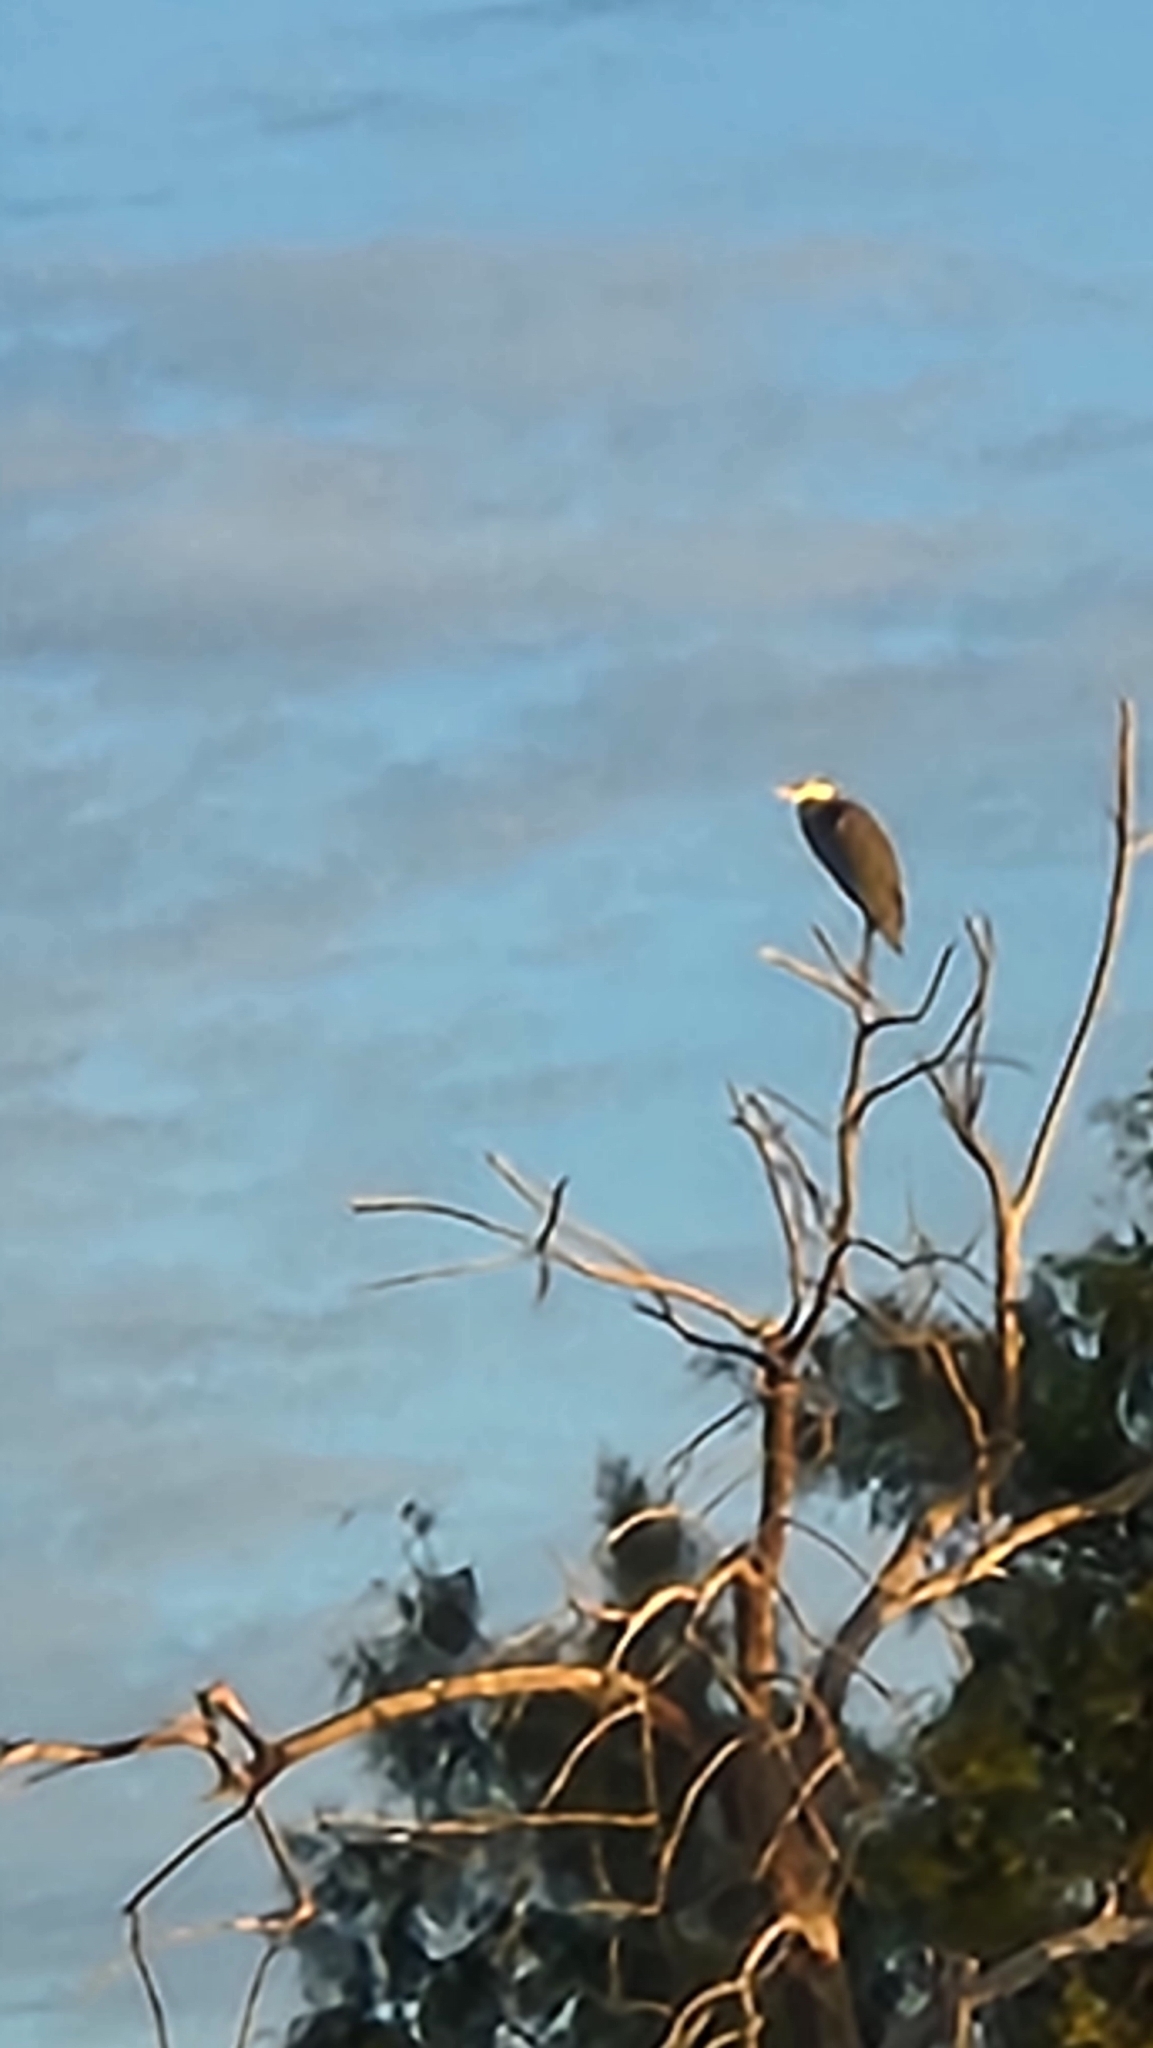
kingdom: Animalia
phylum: Chordata
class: Aves
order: Pelecaniformes
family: Ardeidae
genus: Ardea
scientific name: Ardea herodias
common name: Great blue heron
